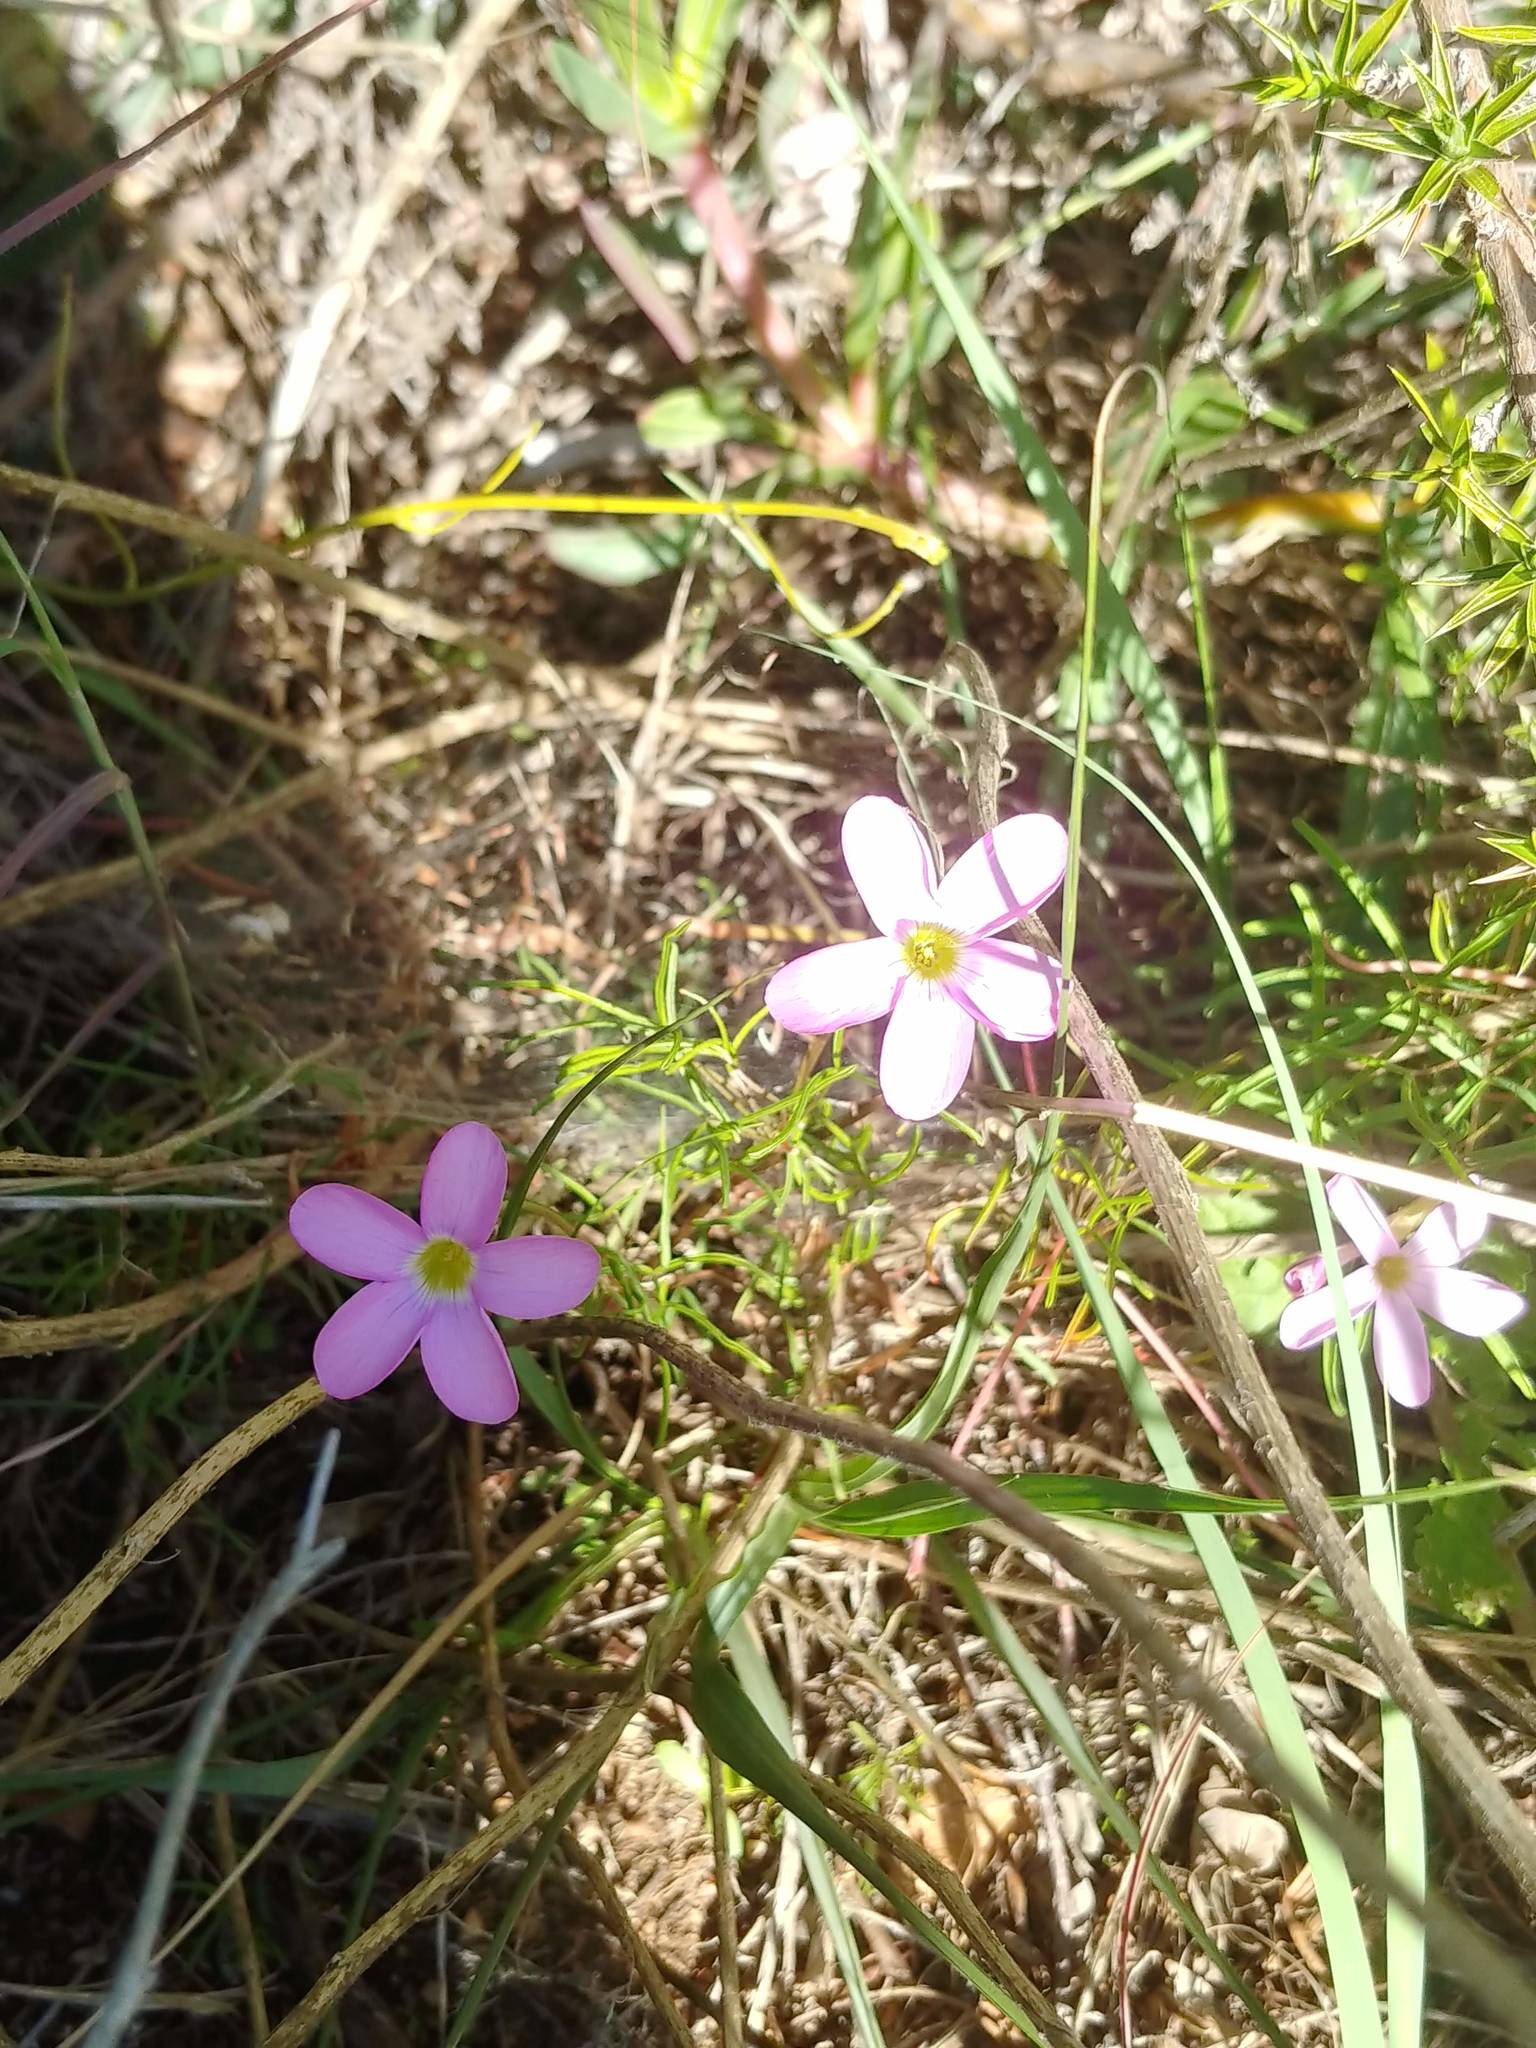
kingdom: Plantae
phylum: Tracheophyta
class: Magnoliopsida
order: Oxalidales
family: Oxalidaceae
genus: Oxalis
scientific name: Oxalis polyphylla
